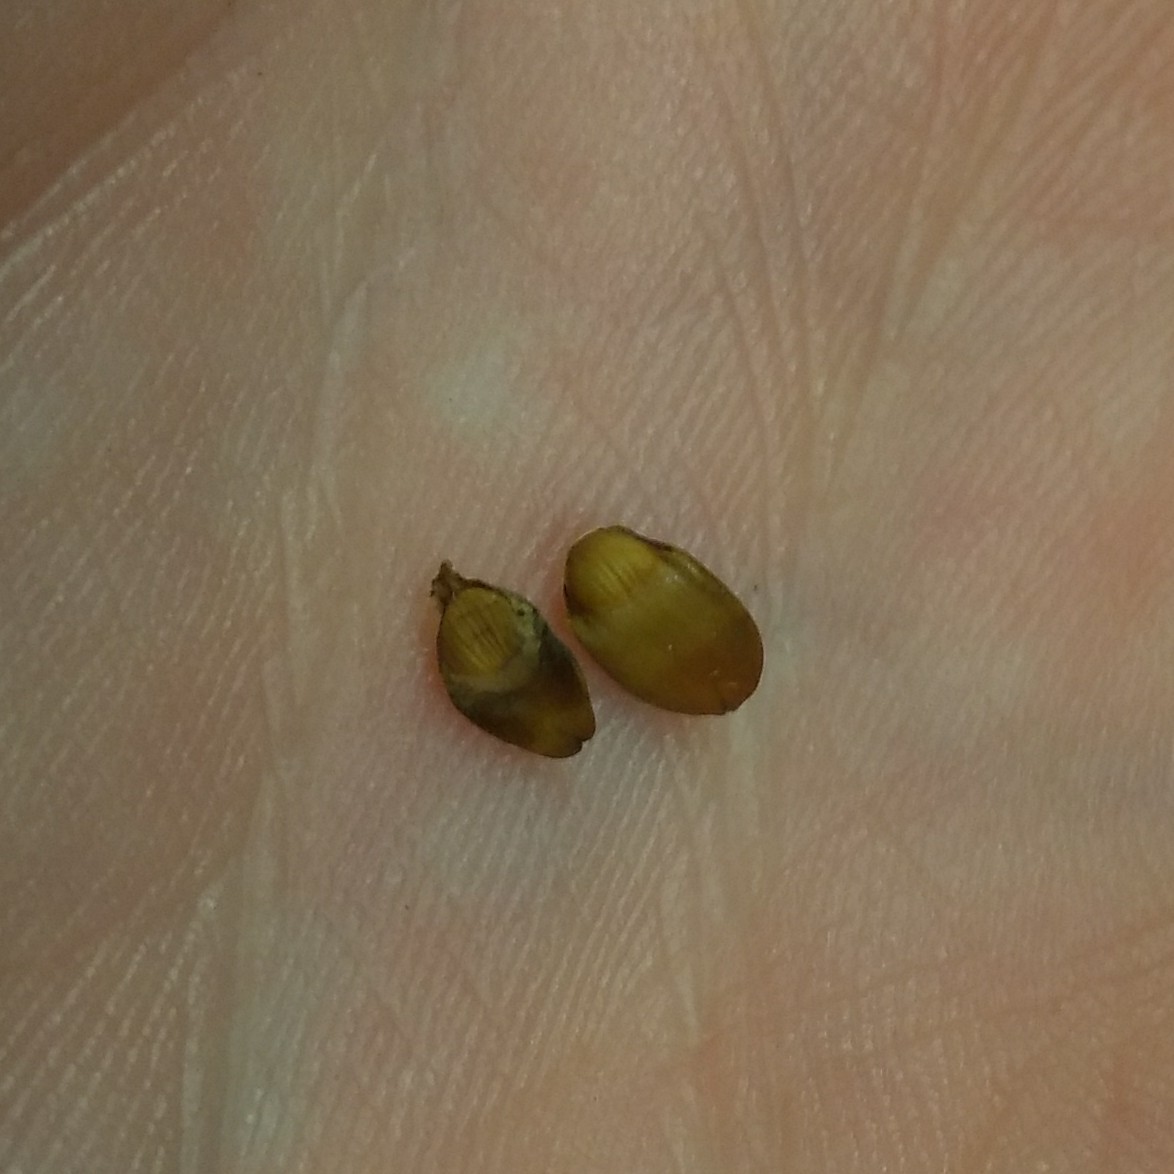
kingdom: Animalia
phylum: Arthropoda
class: Insecta
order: Hymenoptera
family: Cynipidae
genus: Callirhytis
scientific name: Callirhytis
